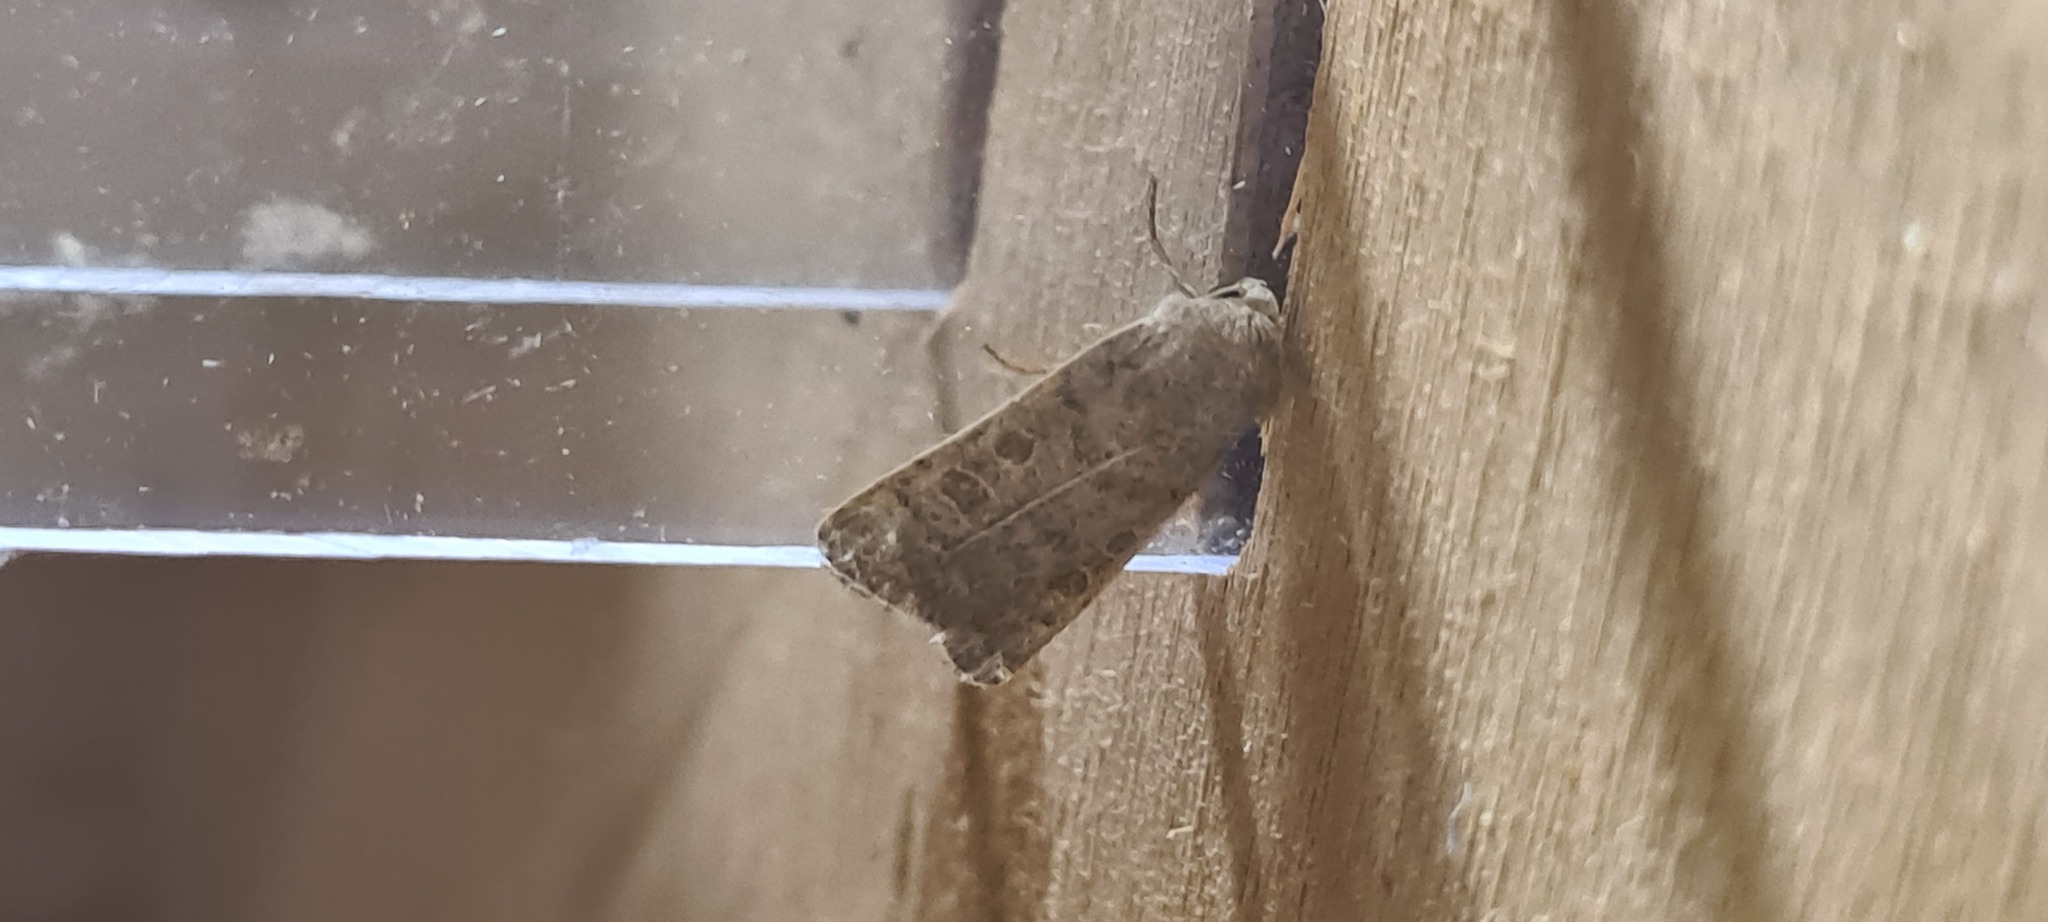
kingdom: Animalia
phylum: Arthropoda
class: Insecta
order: Lepidoptera
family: Noctuidae
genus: Hoplodrina
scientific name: Hoplodrina ambigua
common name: Vine's rustic
